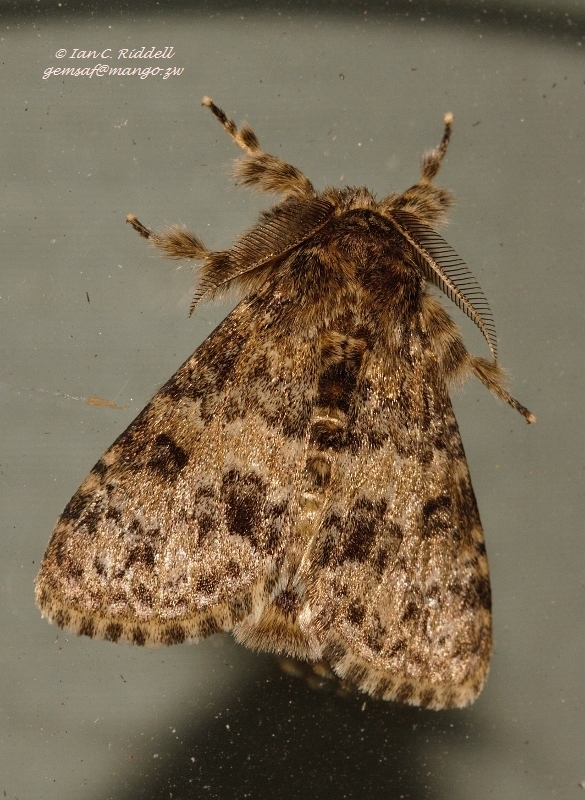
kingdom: Animalia
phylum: Arthropoda
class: Insecta
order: Lepidoptera
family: Erebidae
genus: Dasychira
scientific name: Dasychira extorta
